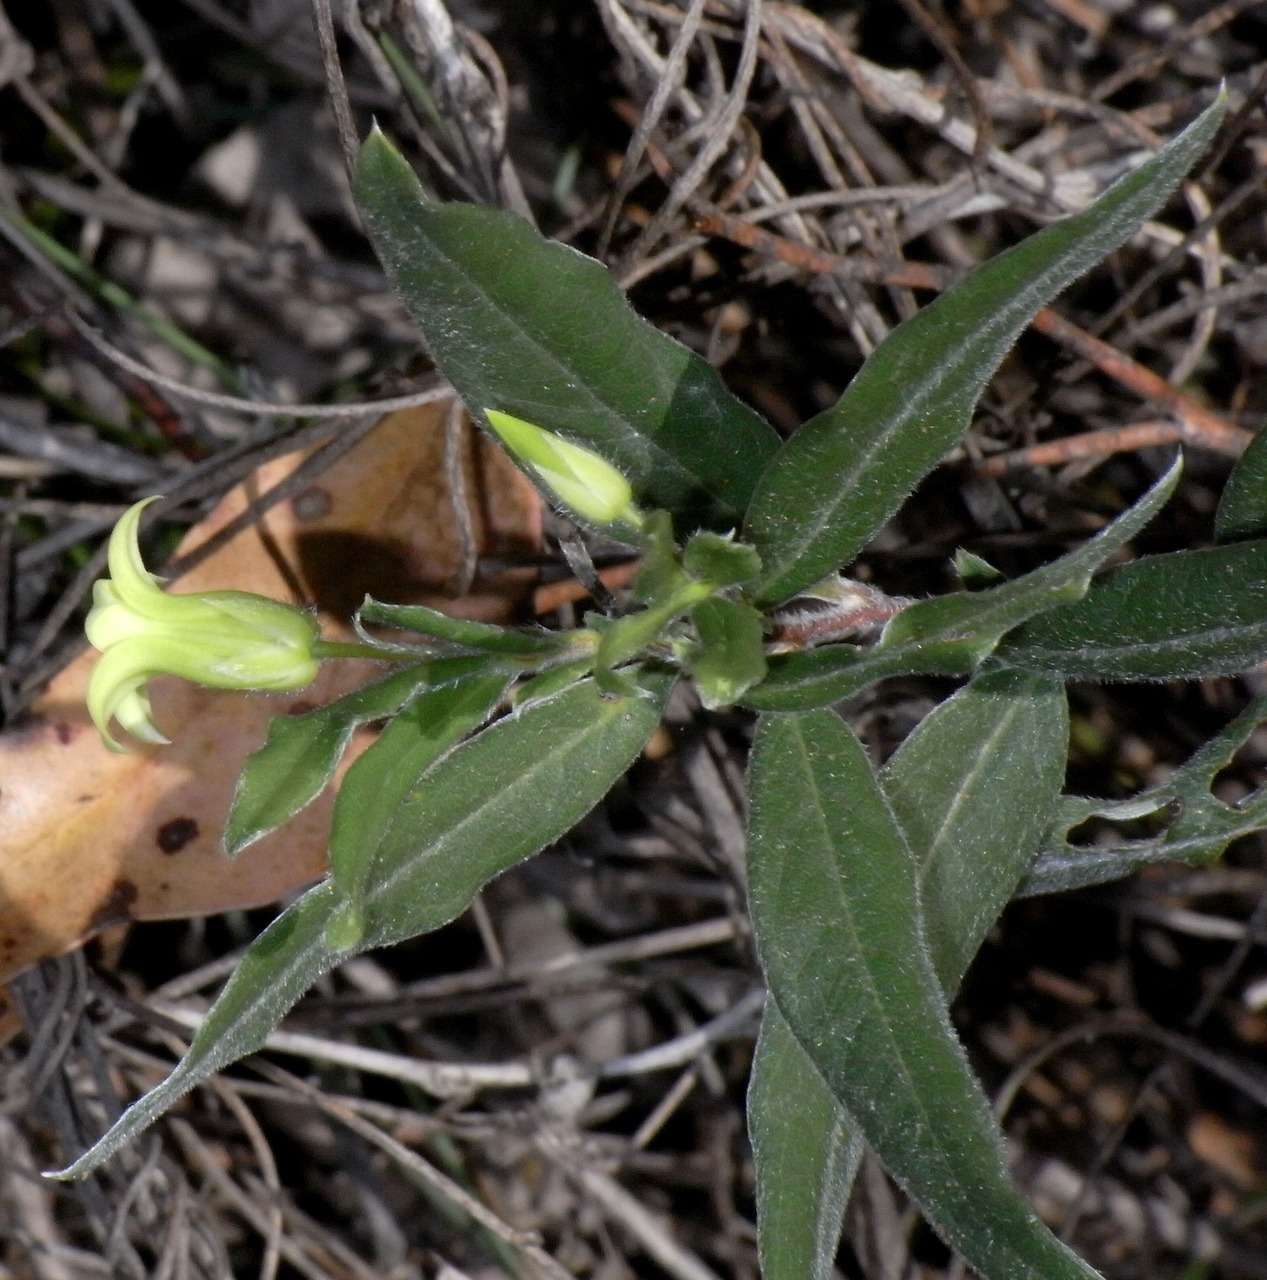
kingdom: Plantae
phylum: Tracheophyta
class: Magnoliopsida
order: Apiales
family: Pittosporaceae
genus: Billardiera
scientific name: Billardiera scandens
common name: Apple-berry
